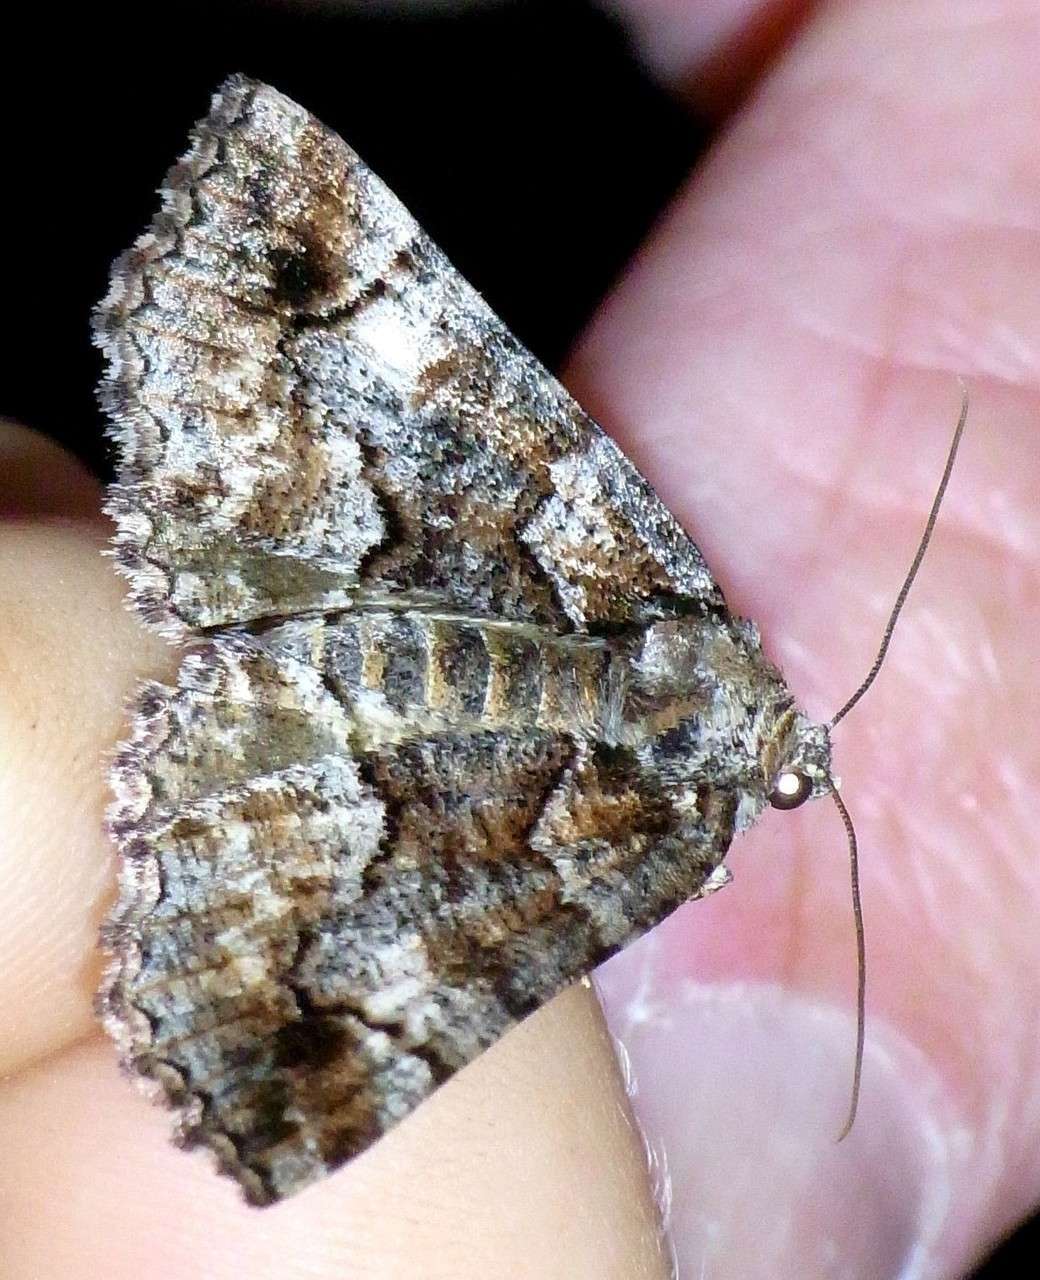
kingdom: Animalia
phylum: Arthropoda
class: Insecta
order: Lepidoptera
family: Geometridae
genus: Gastrina
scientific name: Gastrina cristaria
